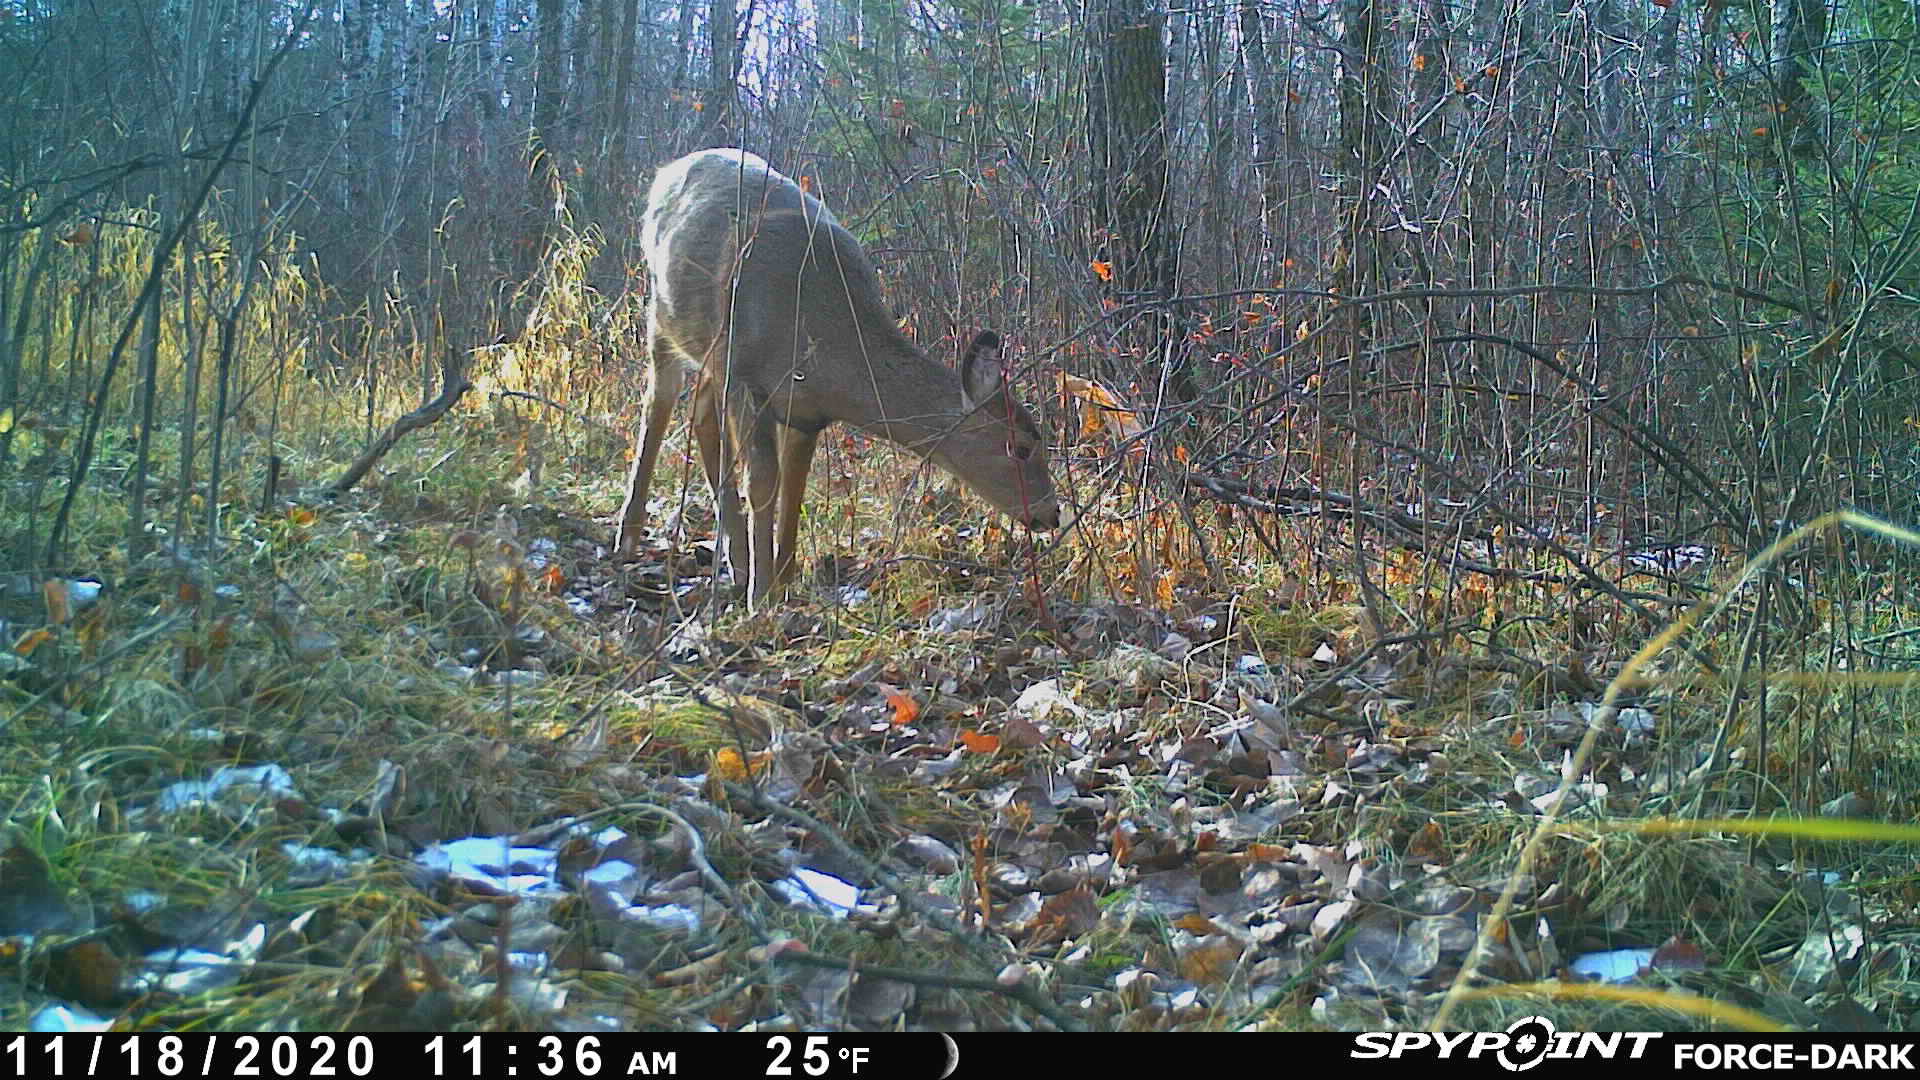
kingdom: Animalia
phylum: Chordata
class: Mammalia
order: Artiodactyla
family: Cervidae
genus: Odocoileus
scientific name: Odocoileus virginianus
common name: White-tailed deer
